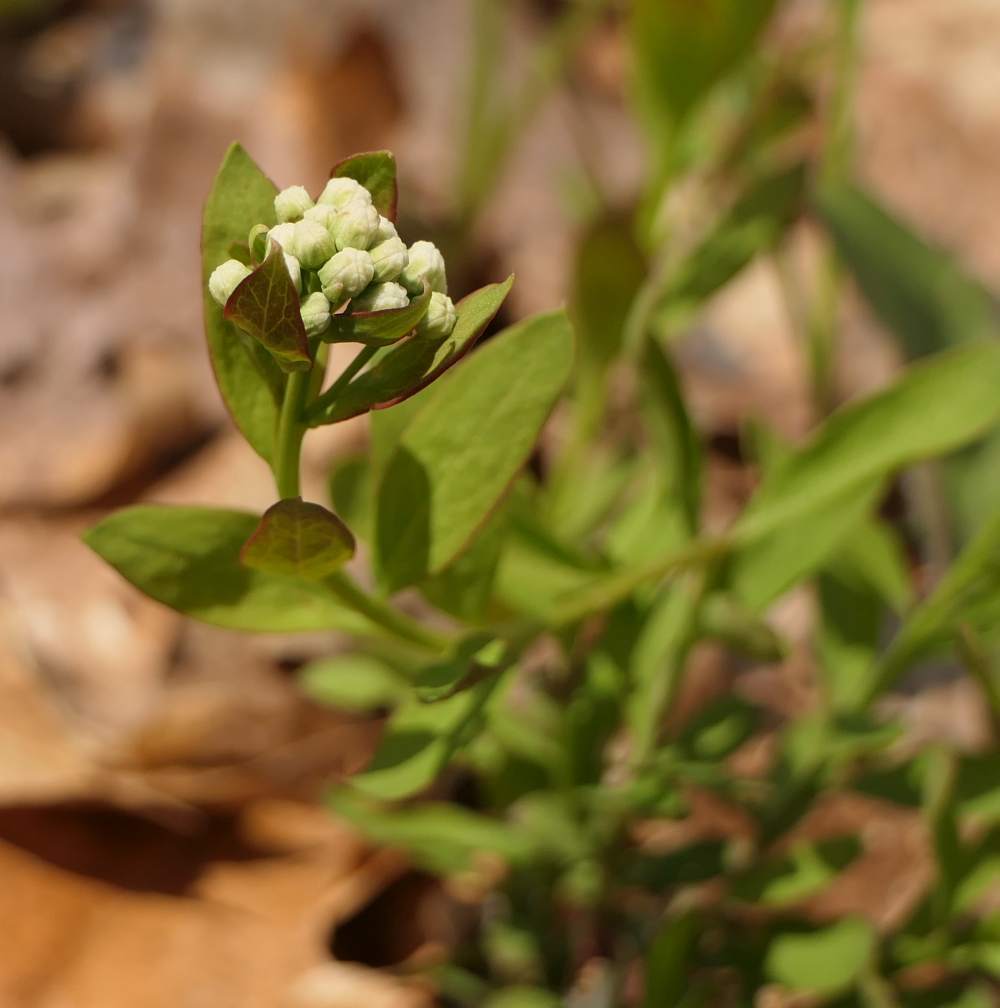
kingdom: Plantae
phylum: Tracheophyta
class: Magnoliopsida
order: Santalales
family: Comandraceae
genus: Comandra
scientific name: Comandra umbellata
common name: Bastard toadflax
